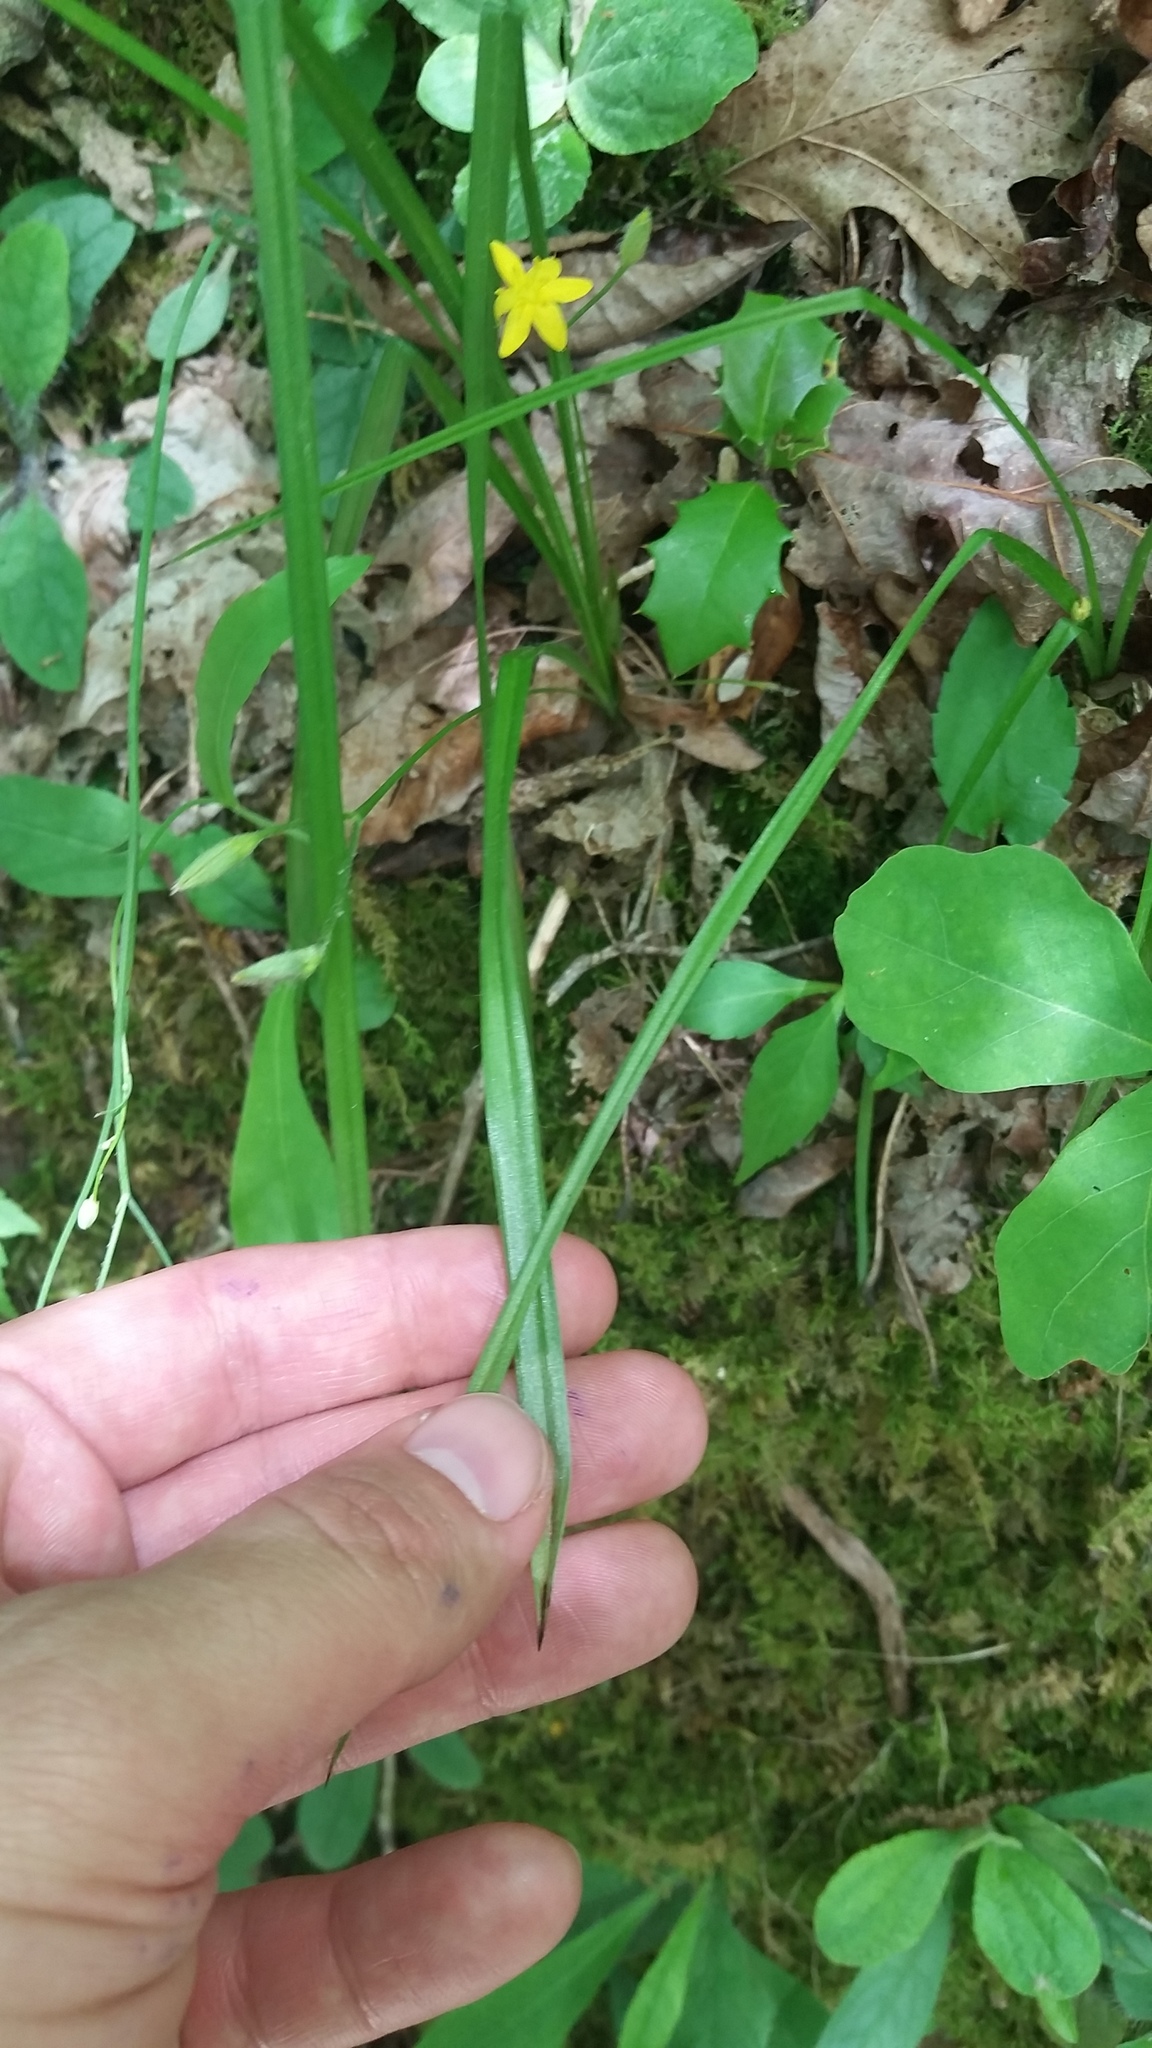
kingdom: Plantae
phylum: Tracheophyta
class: Liliopsida
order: Asparagales
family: Hypoxidaceae
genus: Hypoxis
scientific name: Hypoxis hirsuta
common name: Common goldstar
